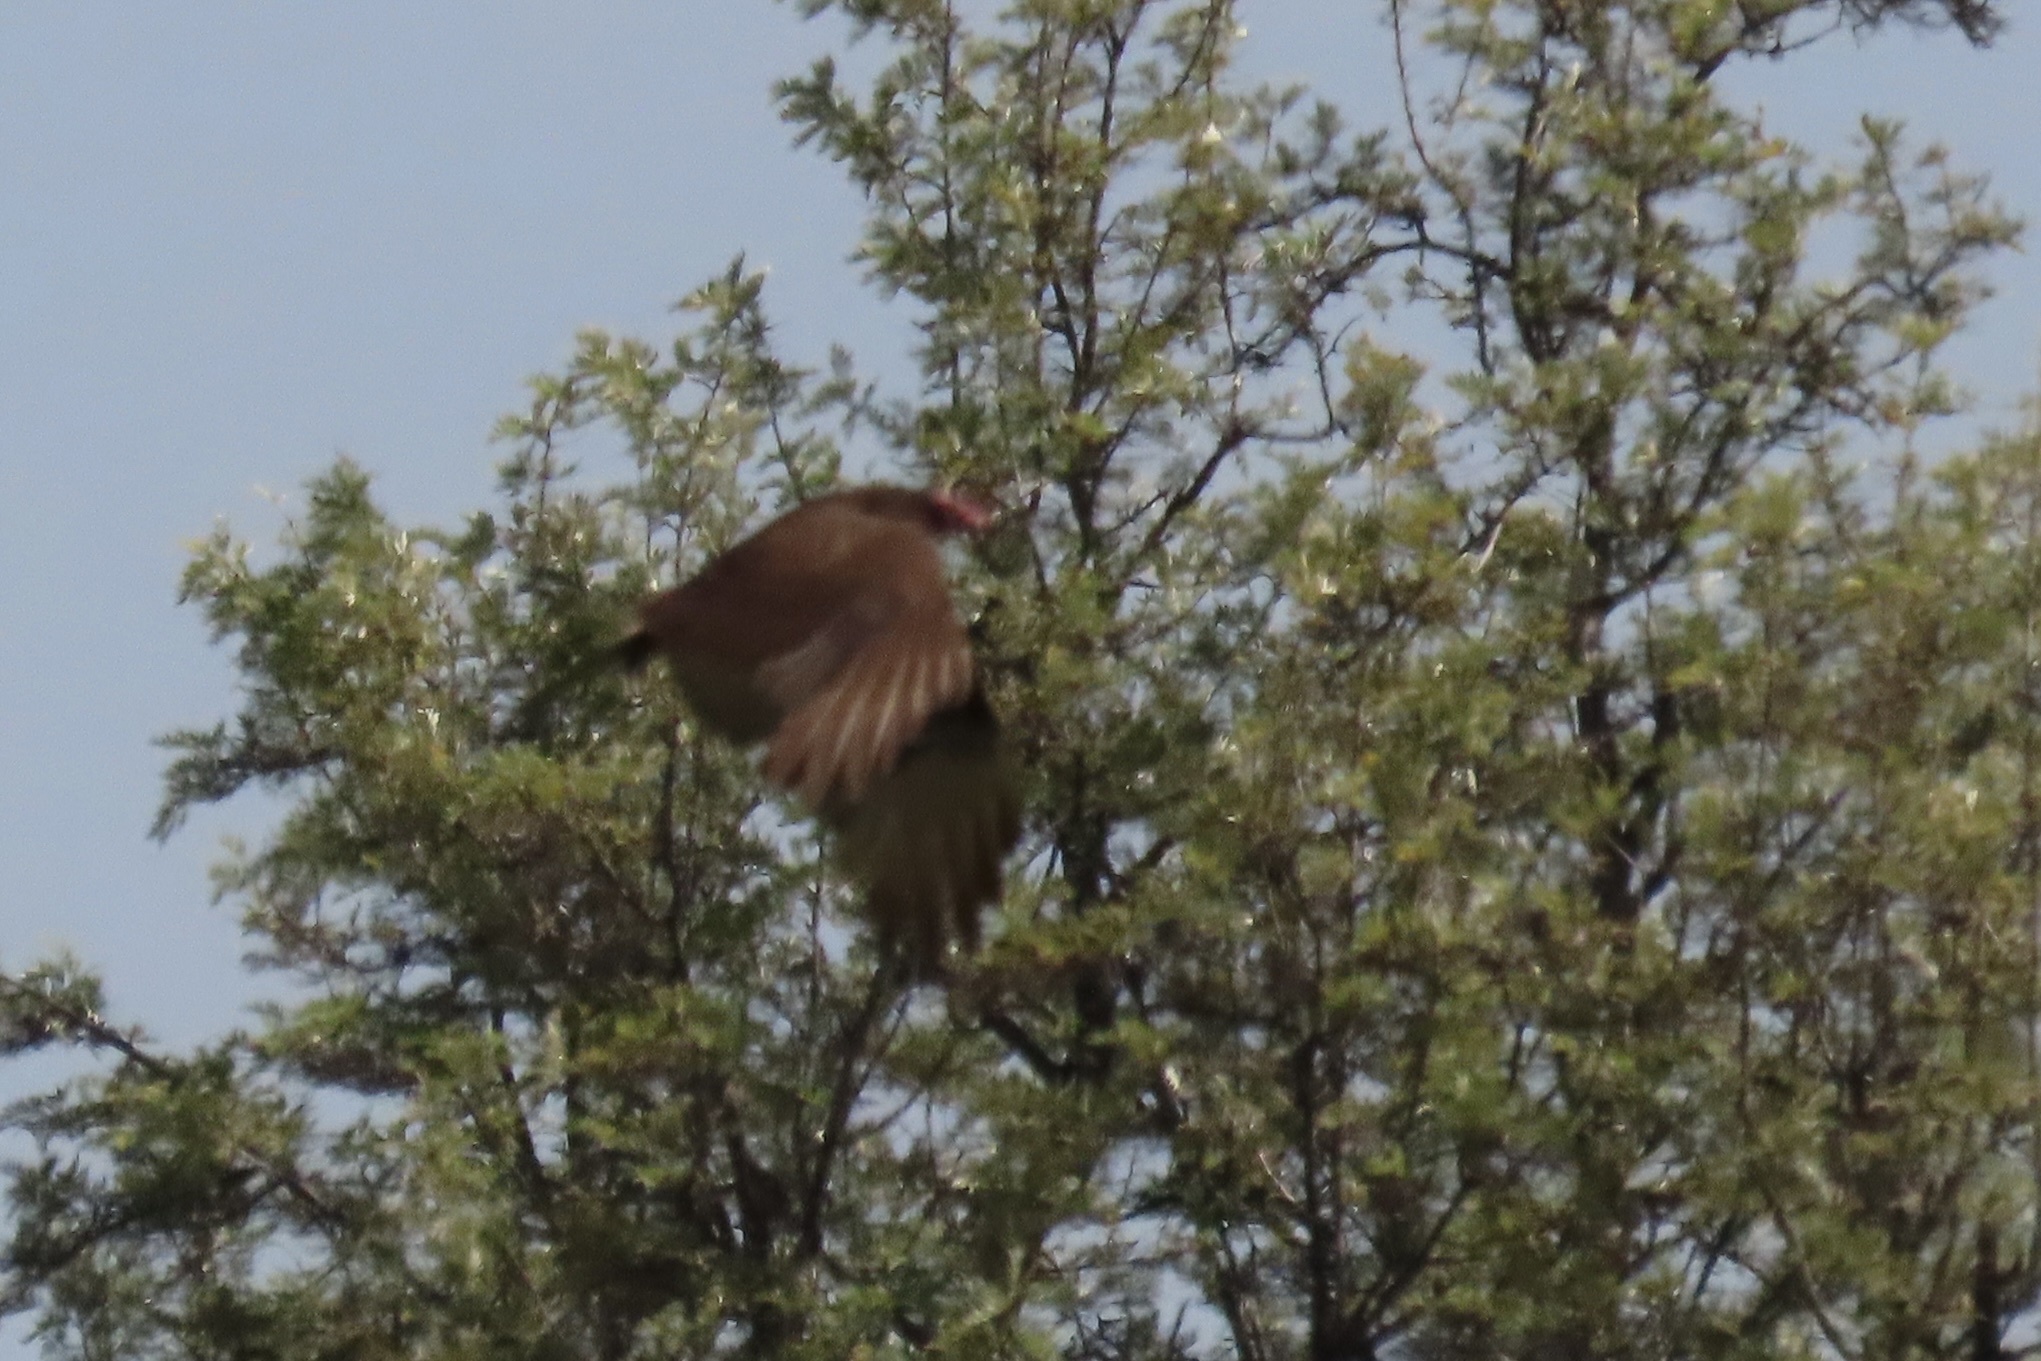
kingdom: Animalia
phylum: Chordata
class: Aves
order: Accipitriformes
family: Cathartidae
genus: Cathartes
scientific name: Cathartes aura
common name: Turkey vulture
